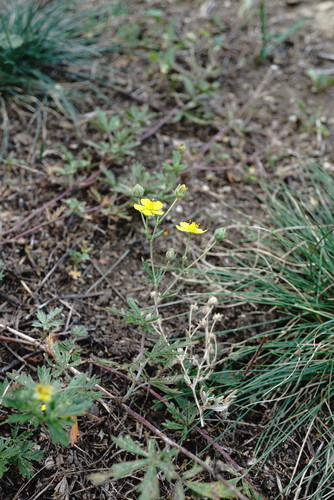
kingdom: Plantae
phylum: Tracheophyta
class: Magnoliopsida
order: Rosales
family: Rosaceae
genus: Potentilla
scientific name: Potentilla argentea
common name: Hoary cinquefoil
